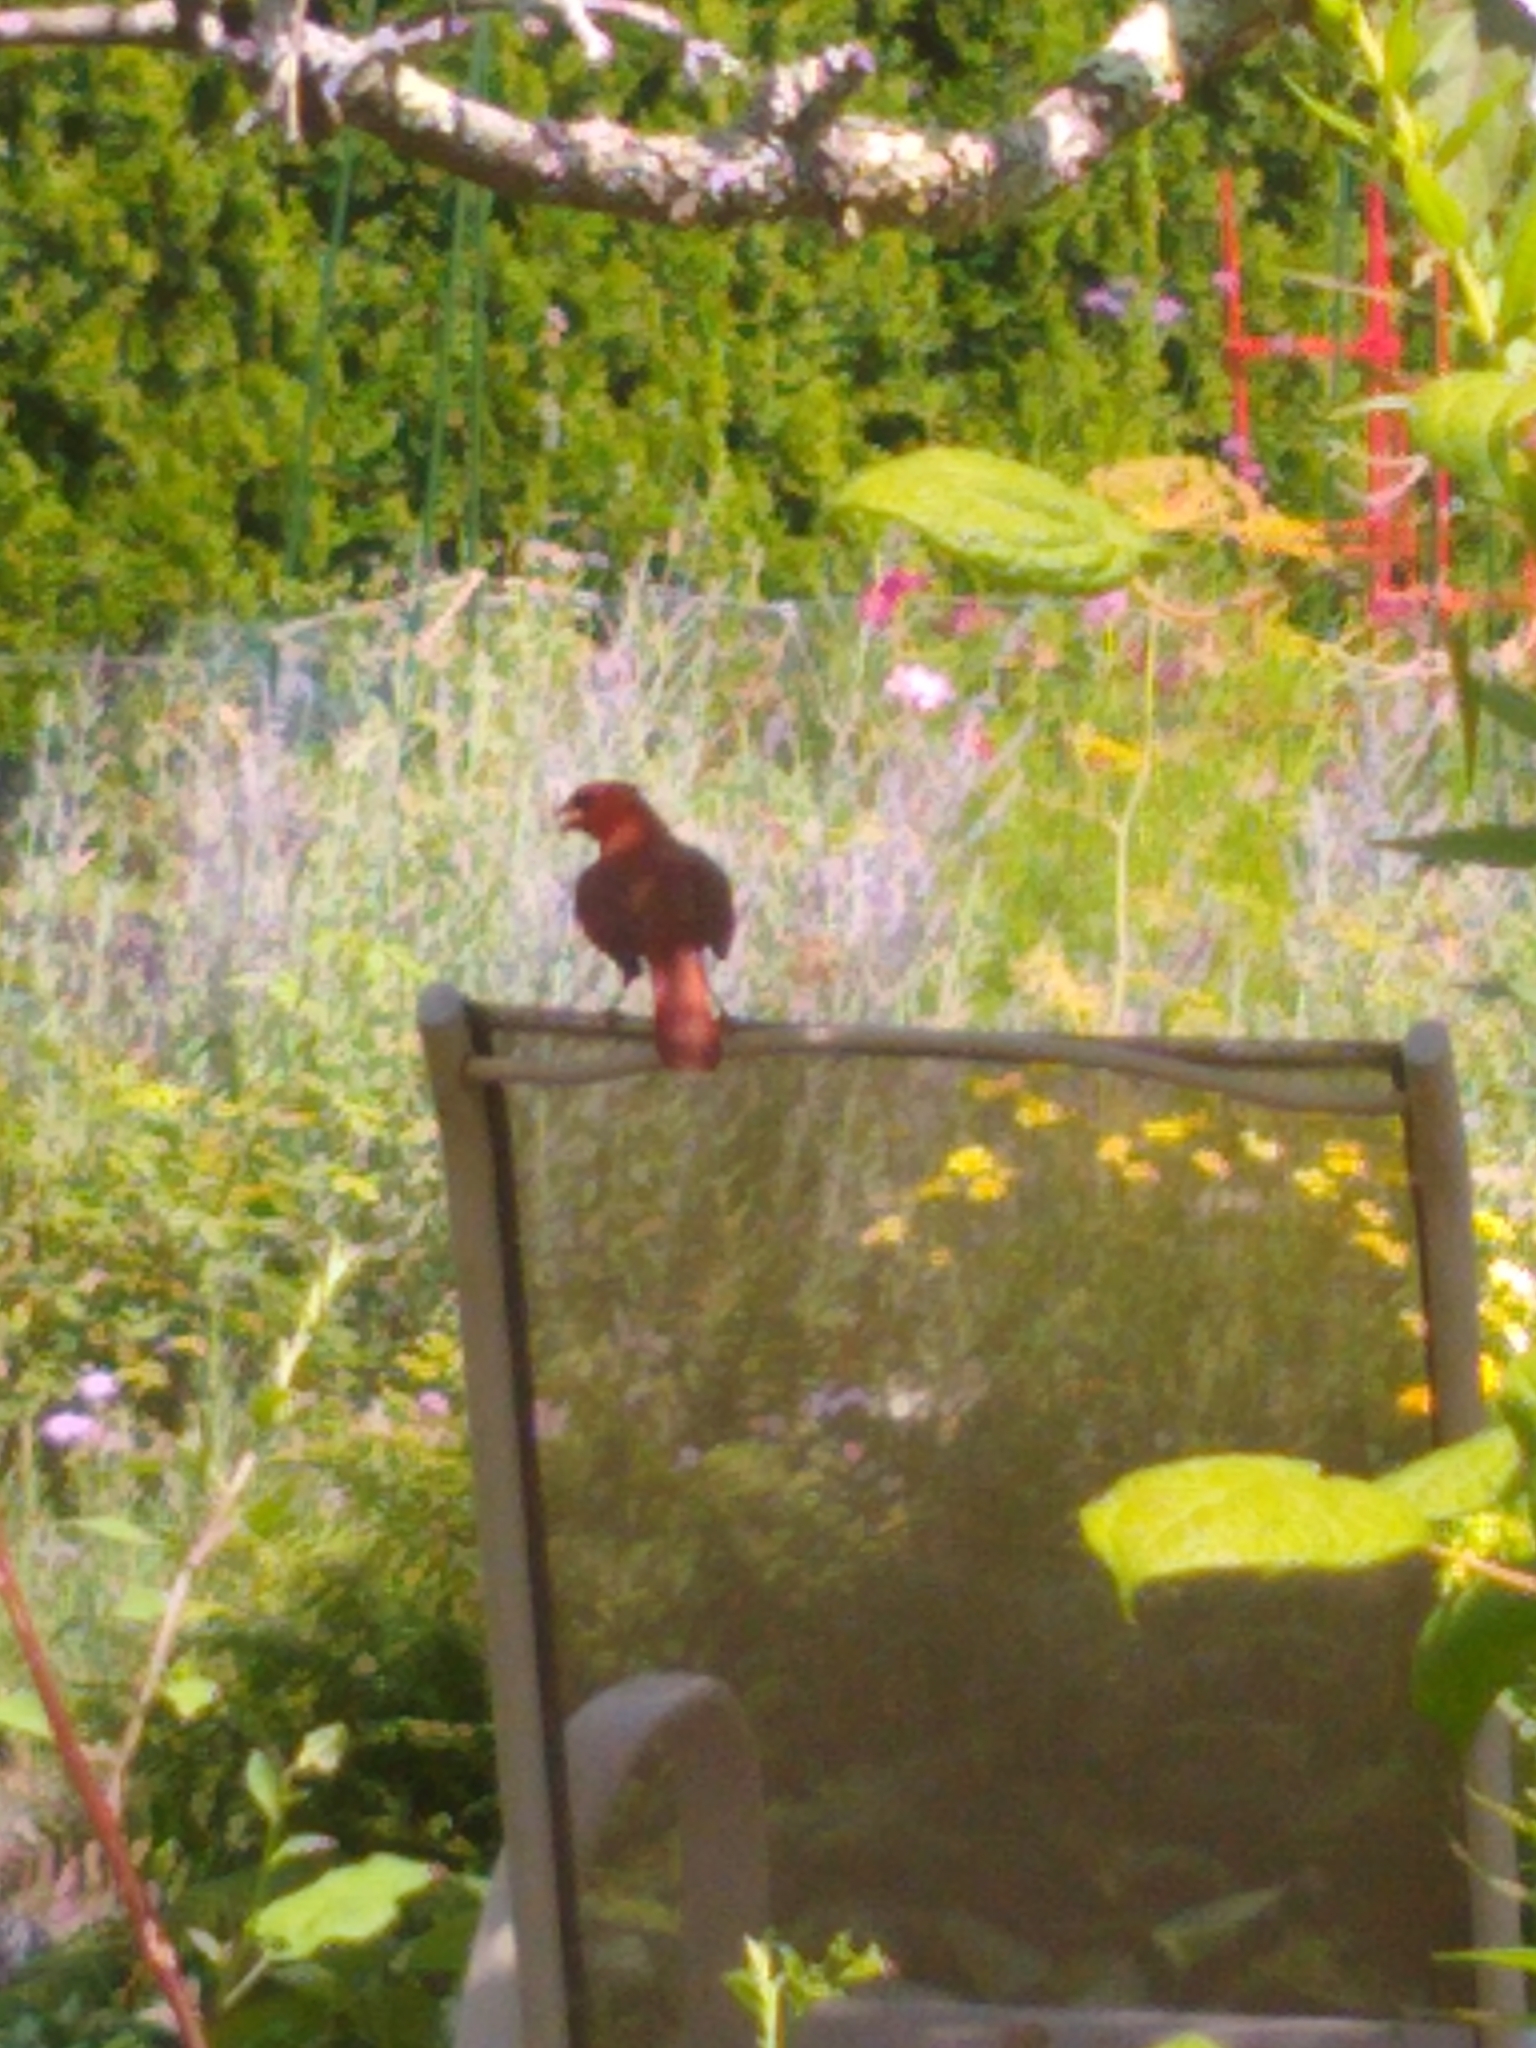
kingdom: Animalia
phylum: Chordata
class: Aves
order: Passeriformes
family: Cardinalidae
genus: Cardinalis
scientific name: Cardinalis cardinalis
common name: Northern cardinal
